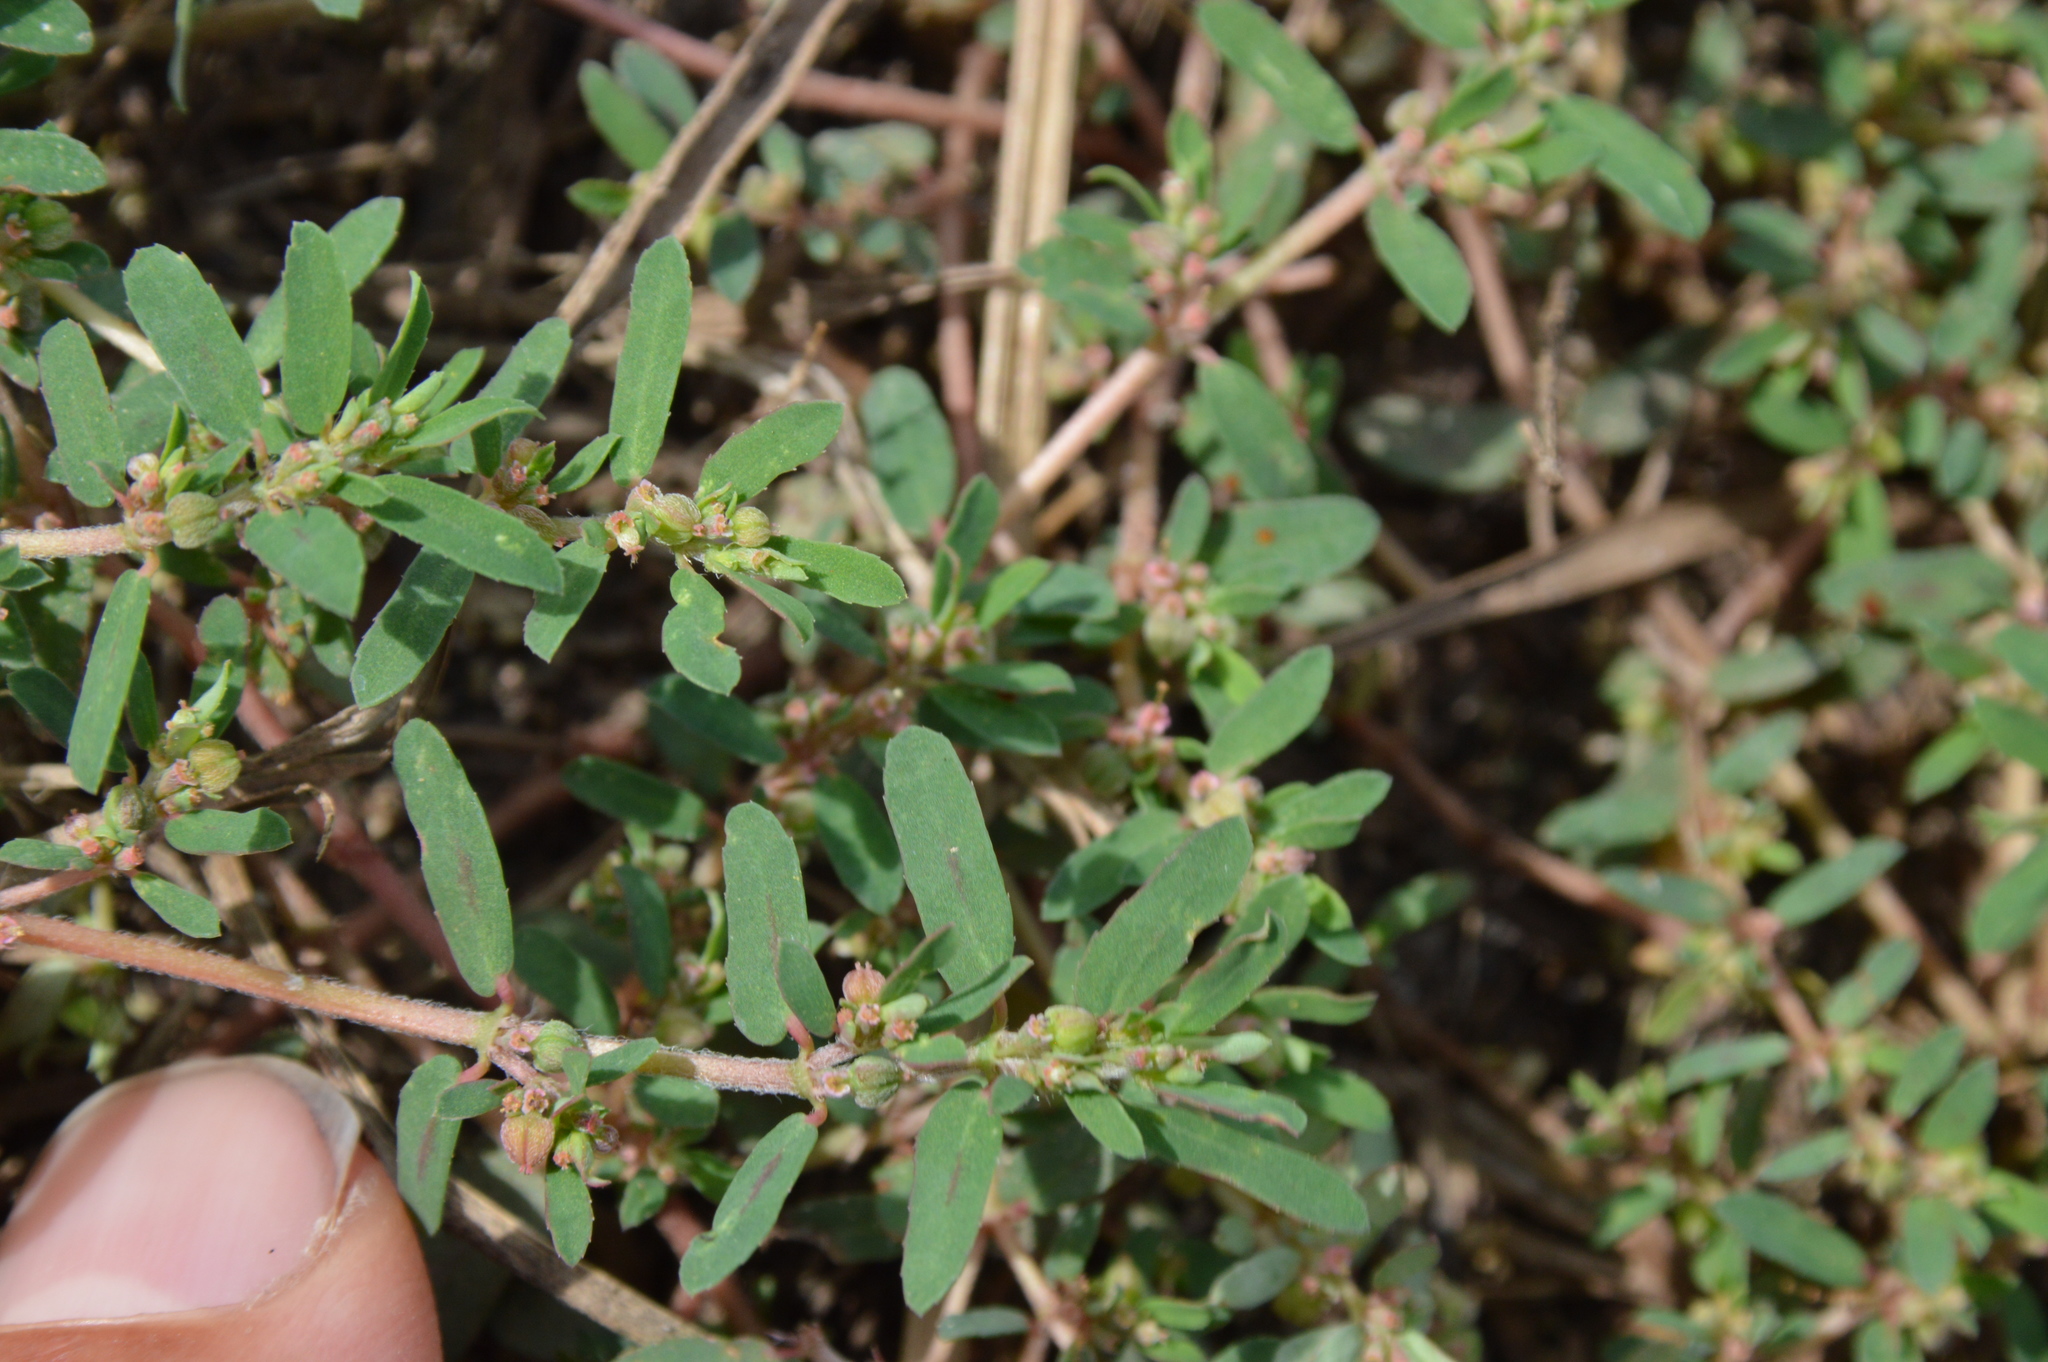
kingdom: Plantae
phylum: Tracheophyta
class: Magnoliopsida
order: Malpighiales
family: Euphorbiaceae
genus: Euphorbia
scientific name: Euphorbia maculata
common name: Spotted spurge
